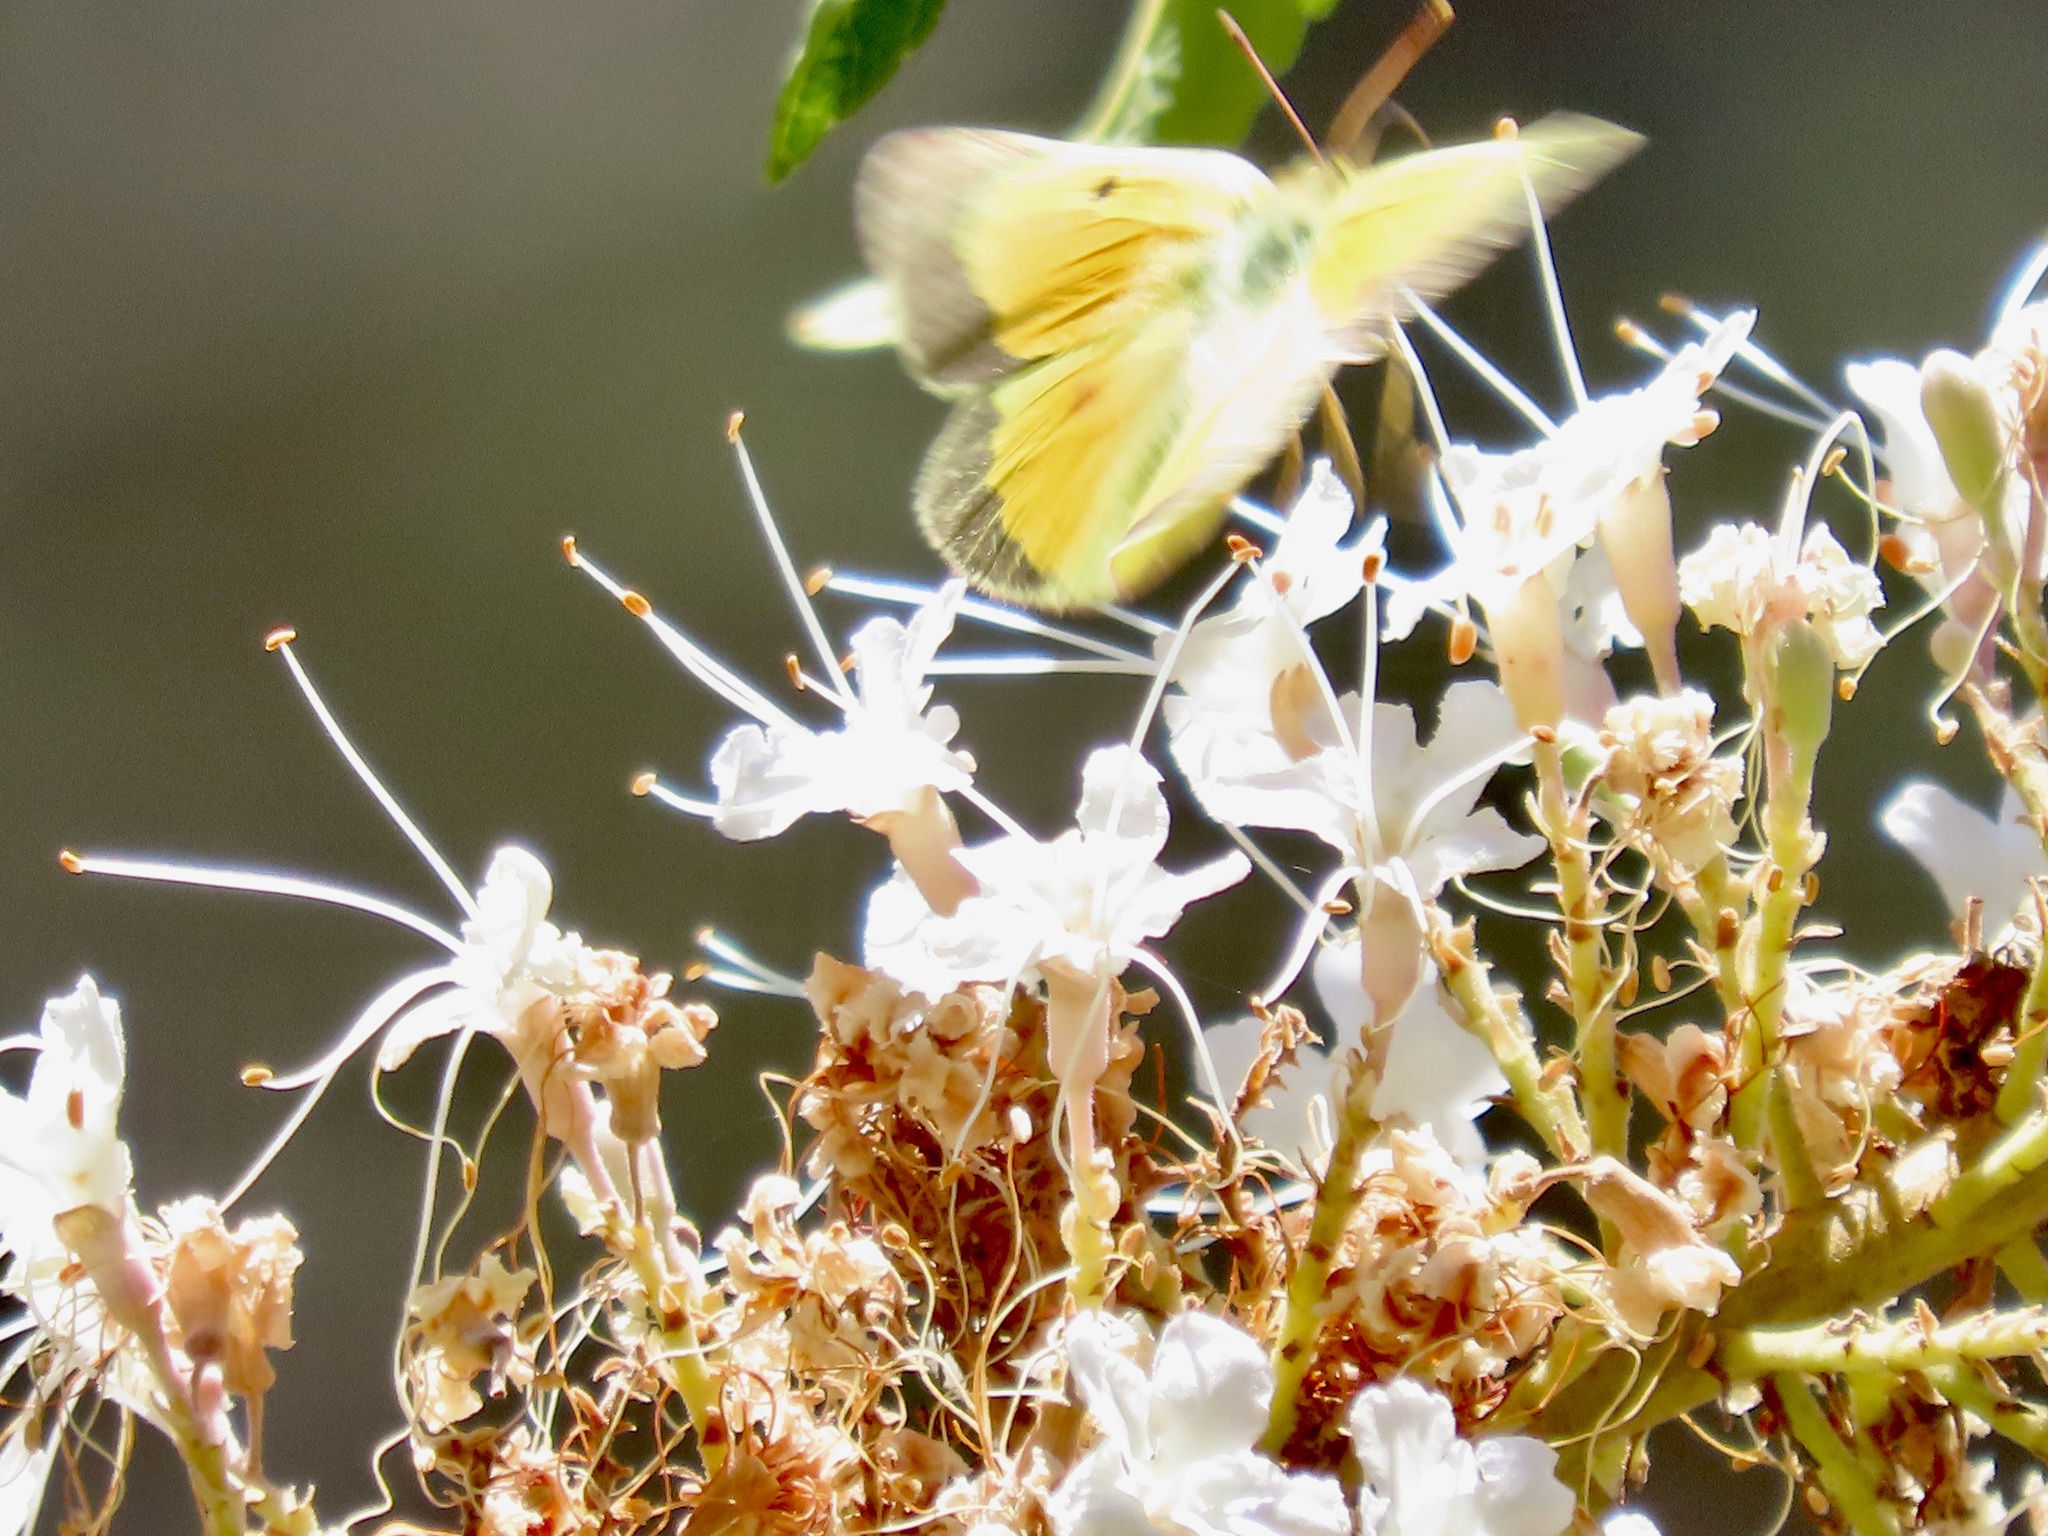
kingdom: Animalia
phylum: Arthropoda
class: Insecta
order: Lepidoptera
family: Pieridae
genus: Colias
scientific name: Colias eurytheme
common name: Alfalfa butterfly
